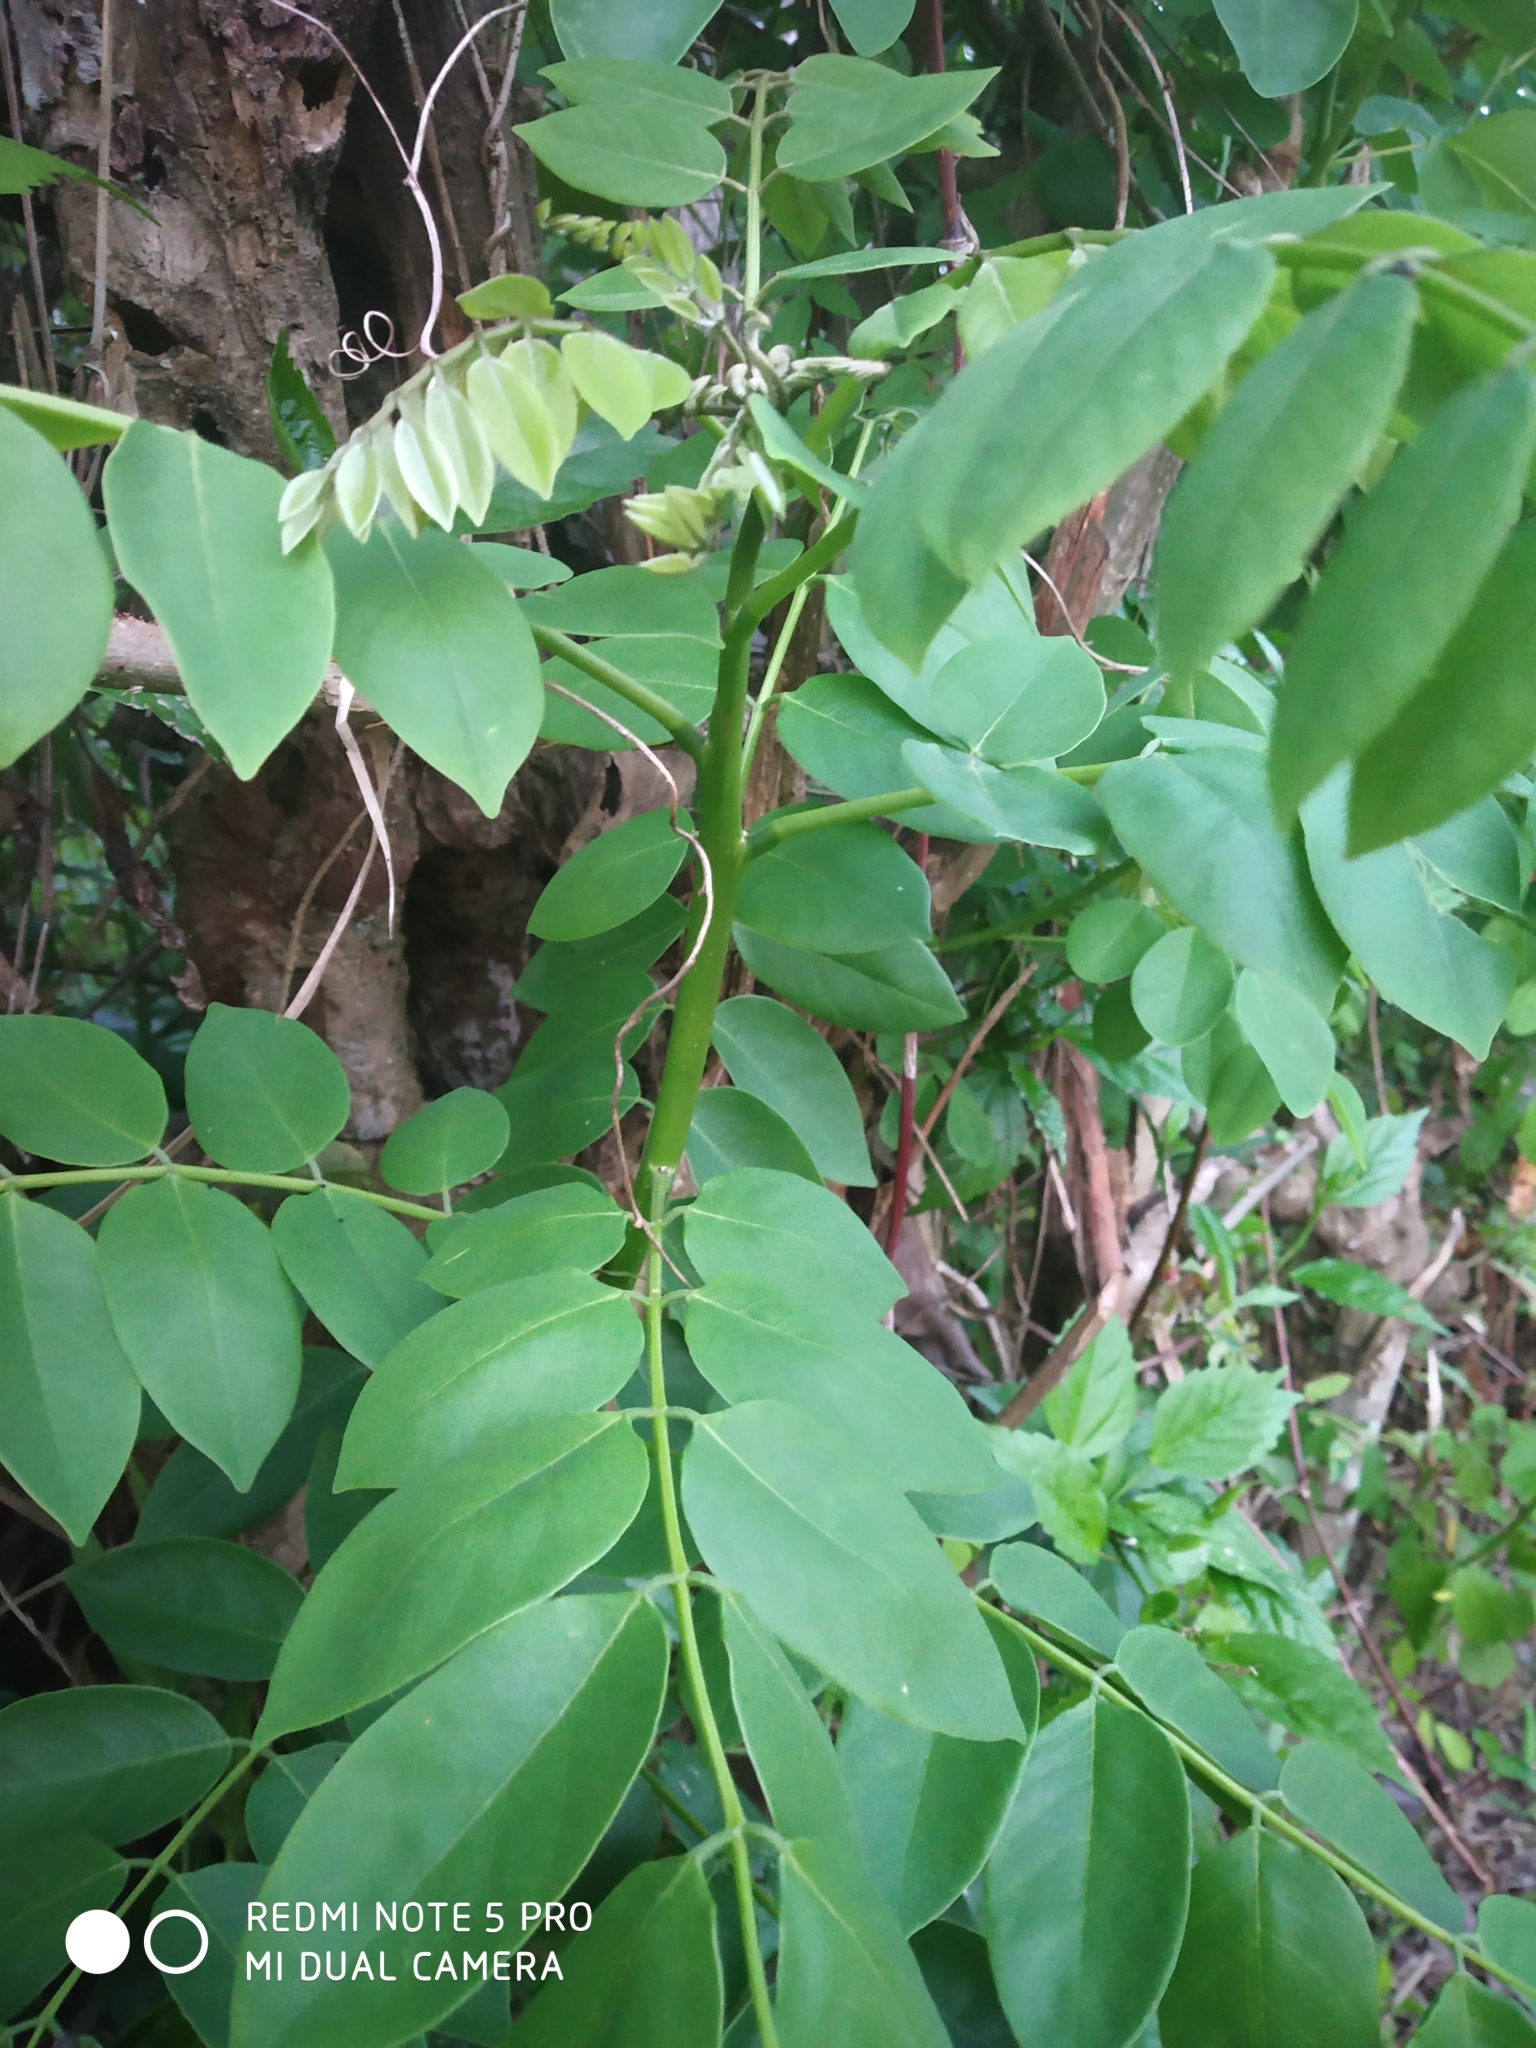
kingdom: Plantae
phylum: Tracheophyta
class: Magnoliopsida
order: Fabales
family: Fabaceae
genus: Gliricidia
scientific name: Gliricidia sepium
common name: Quickstick
